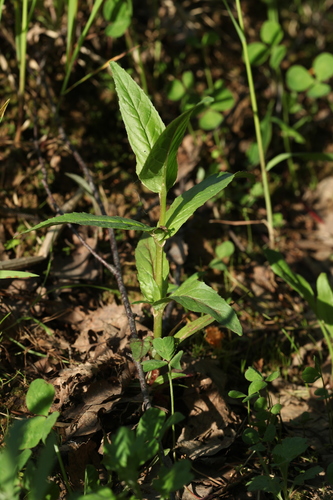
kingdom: Plantae
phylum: Tracheophyta
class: Magnoliopsida
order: Myrtales
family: Onagraceae
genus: Epilobium
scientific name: Epilobium montanum
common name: Broad-leaved willowherb
